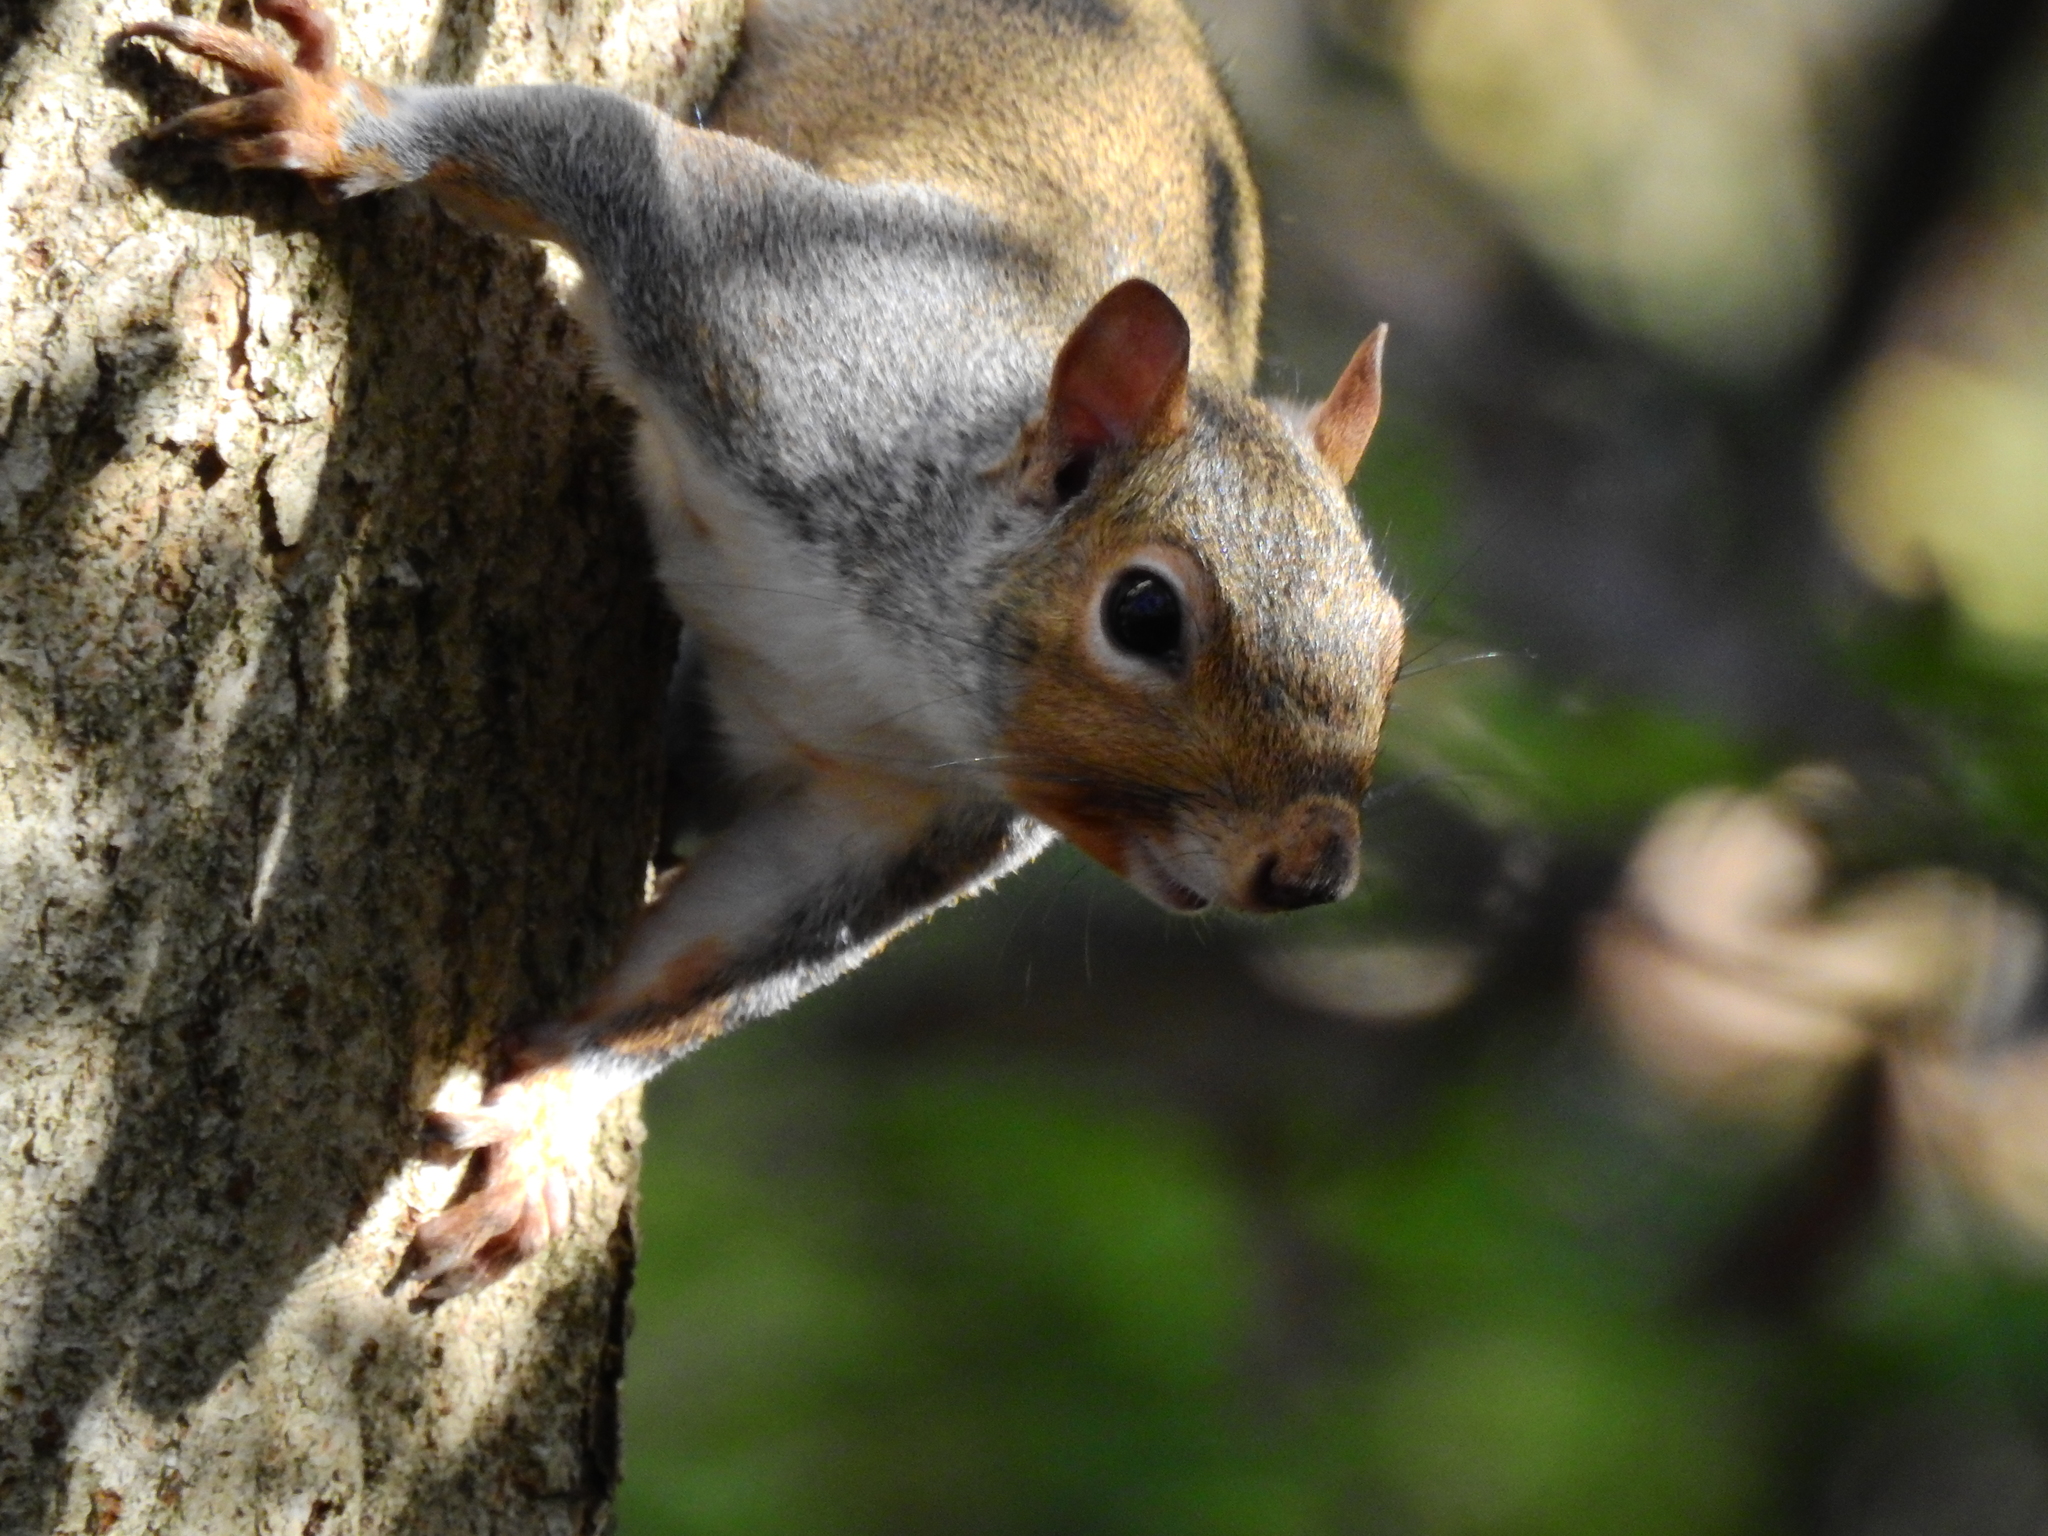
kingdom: Animalia
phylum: Chordata
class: Mammalia
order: Rodentia
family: Sciuridae
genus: Sciurus
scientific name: Sciurus carolinensis
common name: Eastern gray squirrel
